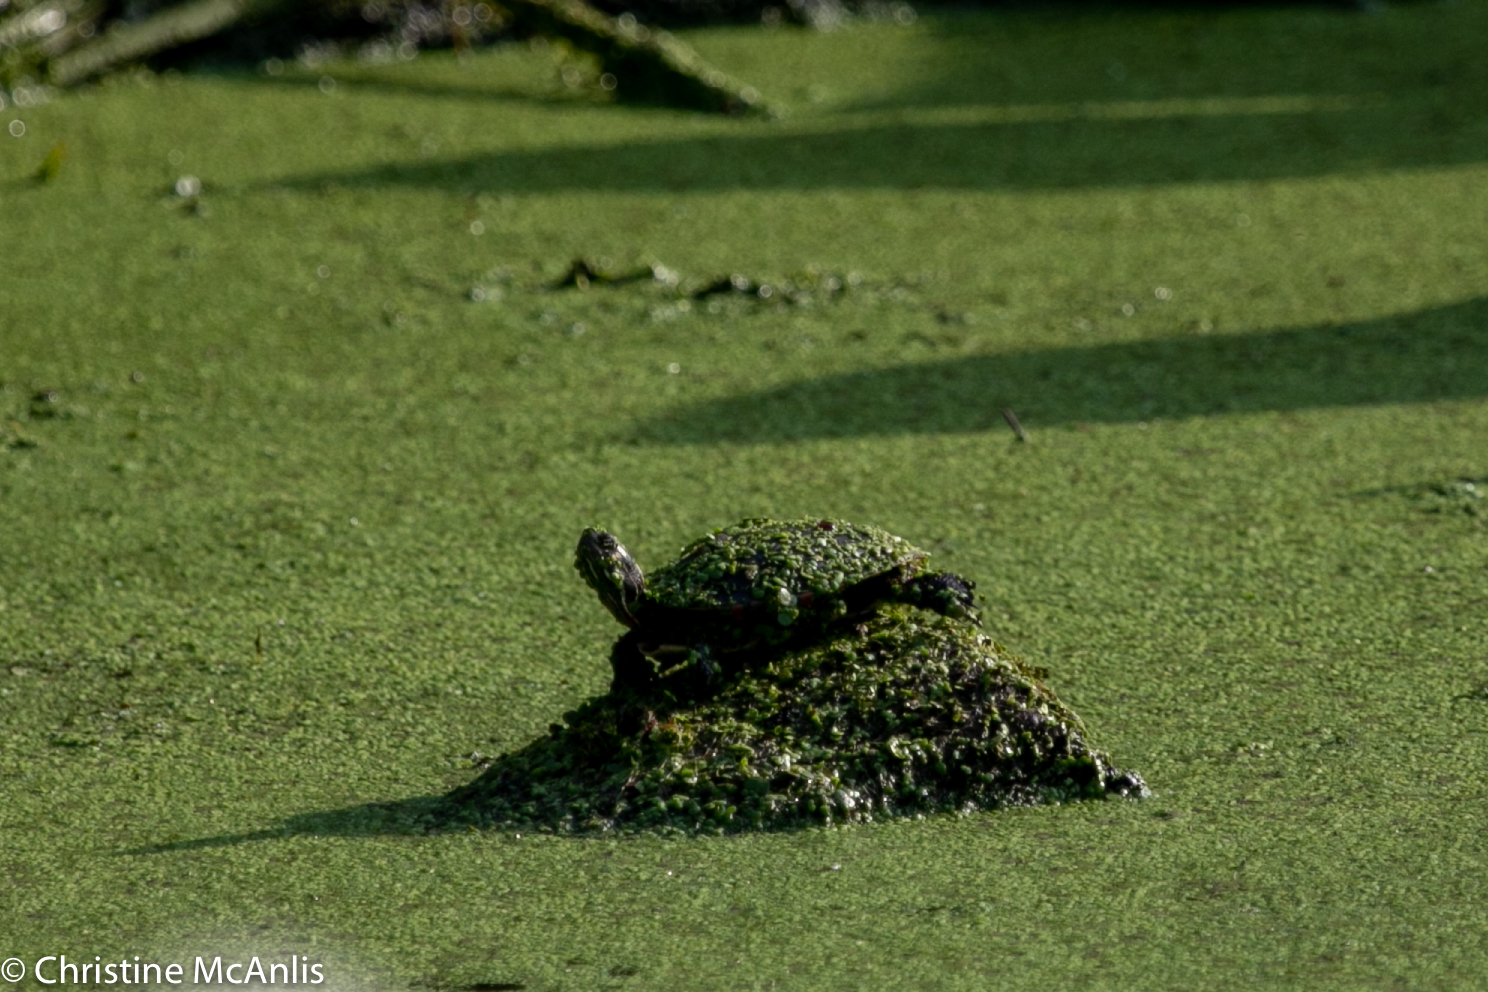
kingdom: Animalia
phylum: Chordata
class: Testudines
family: Emydidae
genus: Chrysemys
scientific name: Chrysemys picta
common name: Painted turtle
